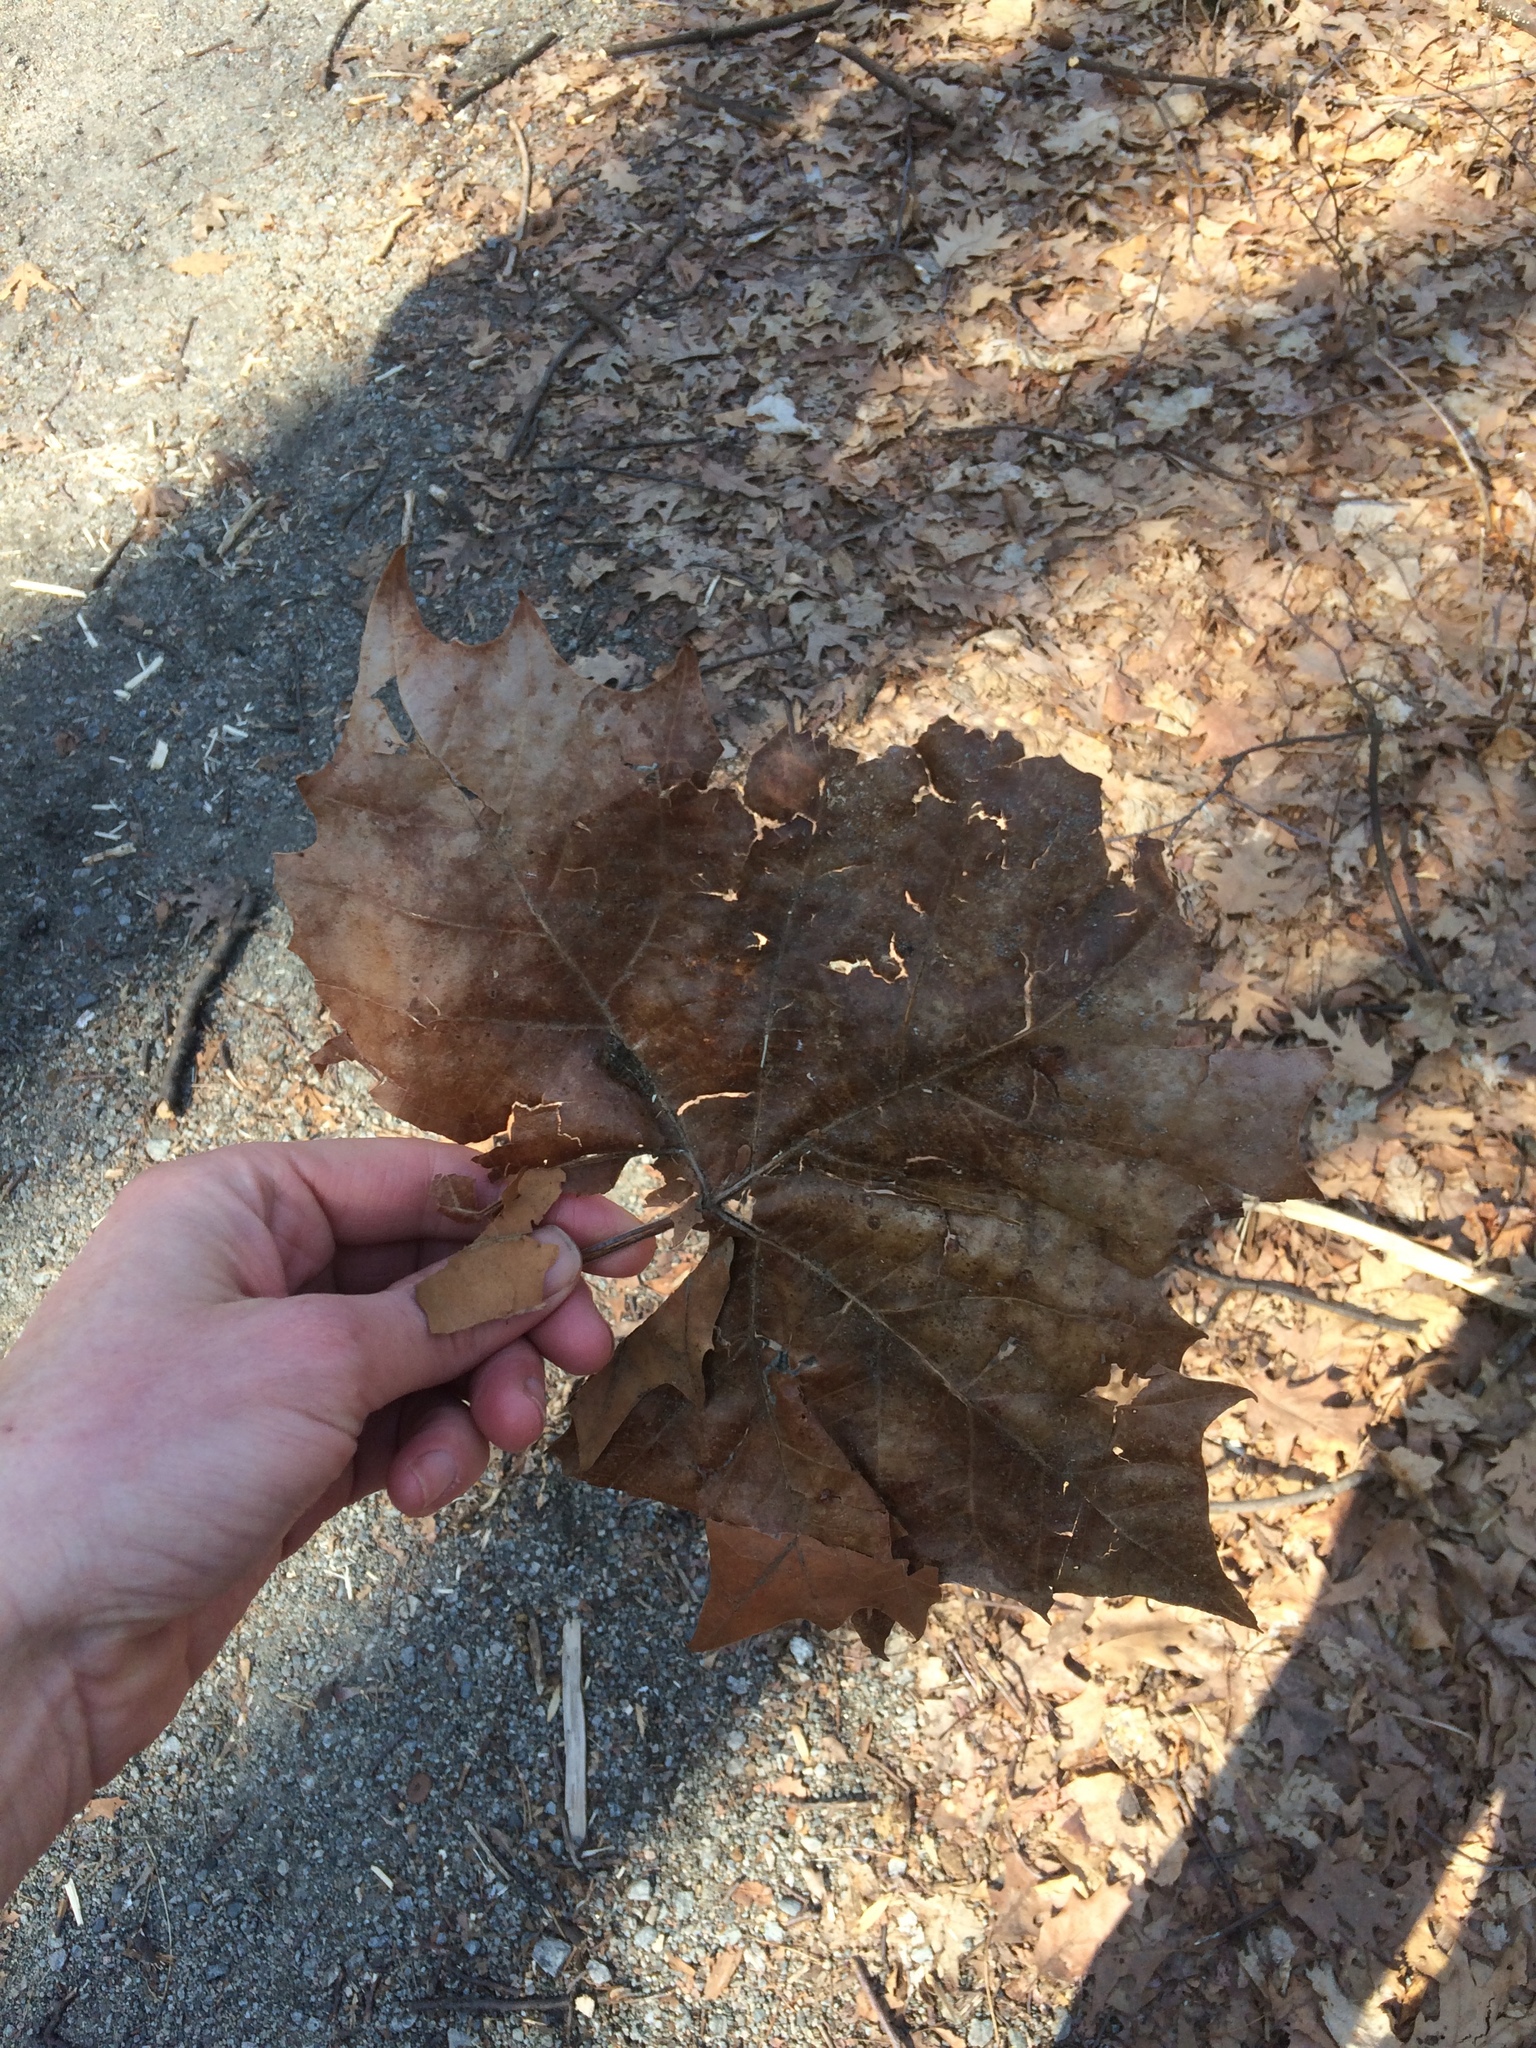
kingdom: Plantae
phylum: Tracheophyta
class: Magnoliopsida
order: Proteales
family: Platanaceae
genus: Platanus
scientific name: Platanus occidentalis
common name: American sycamore
